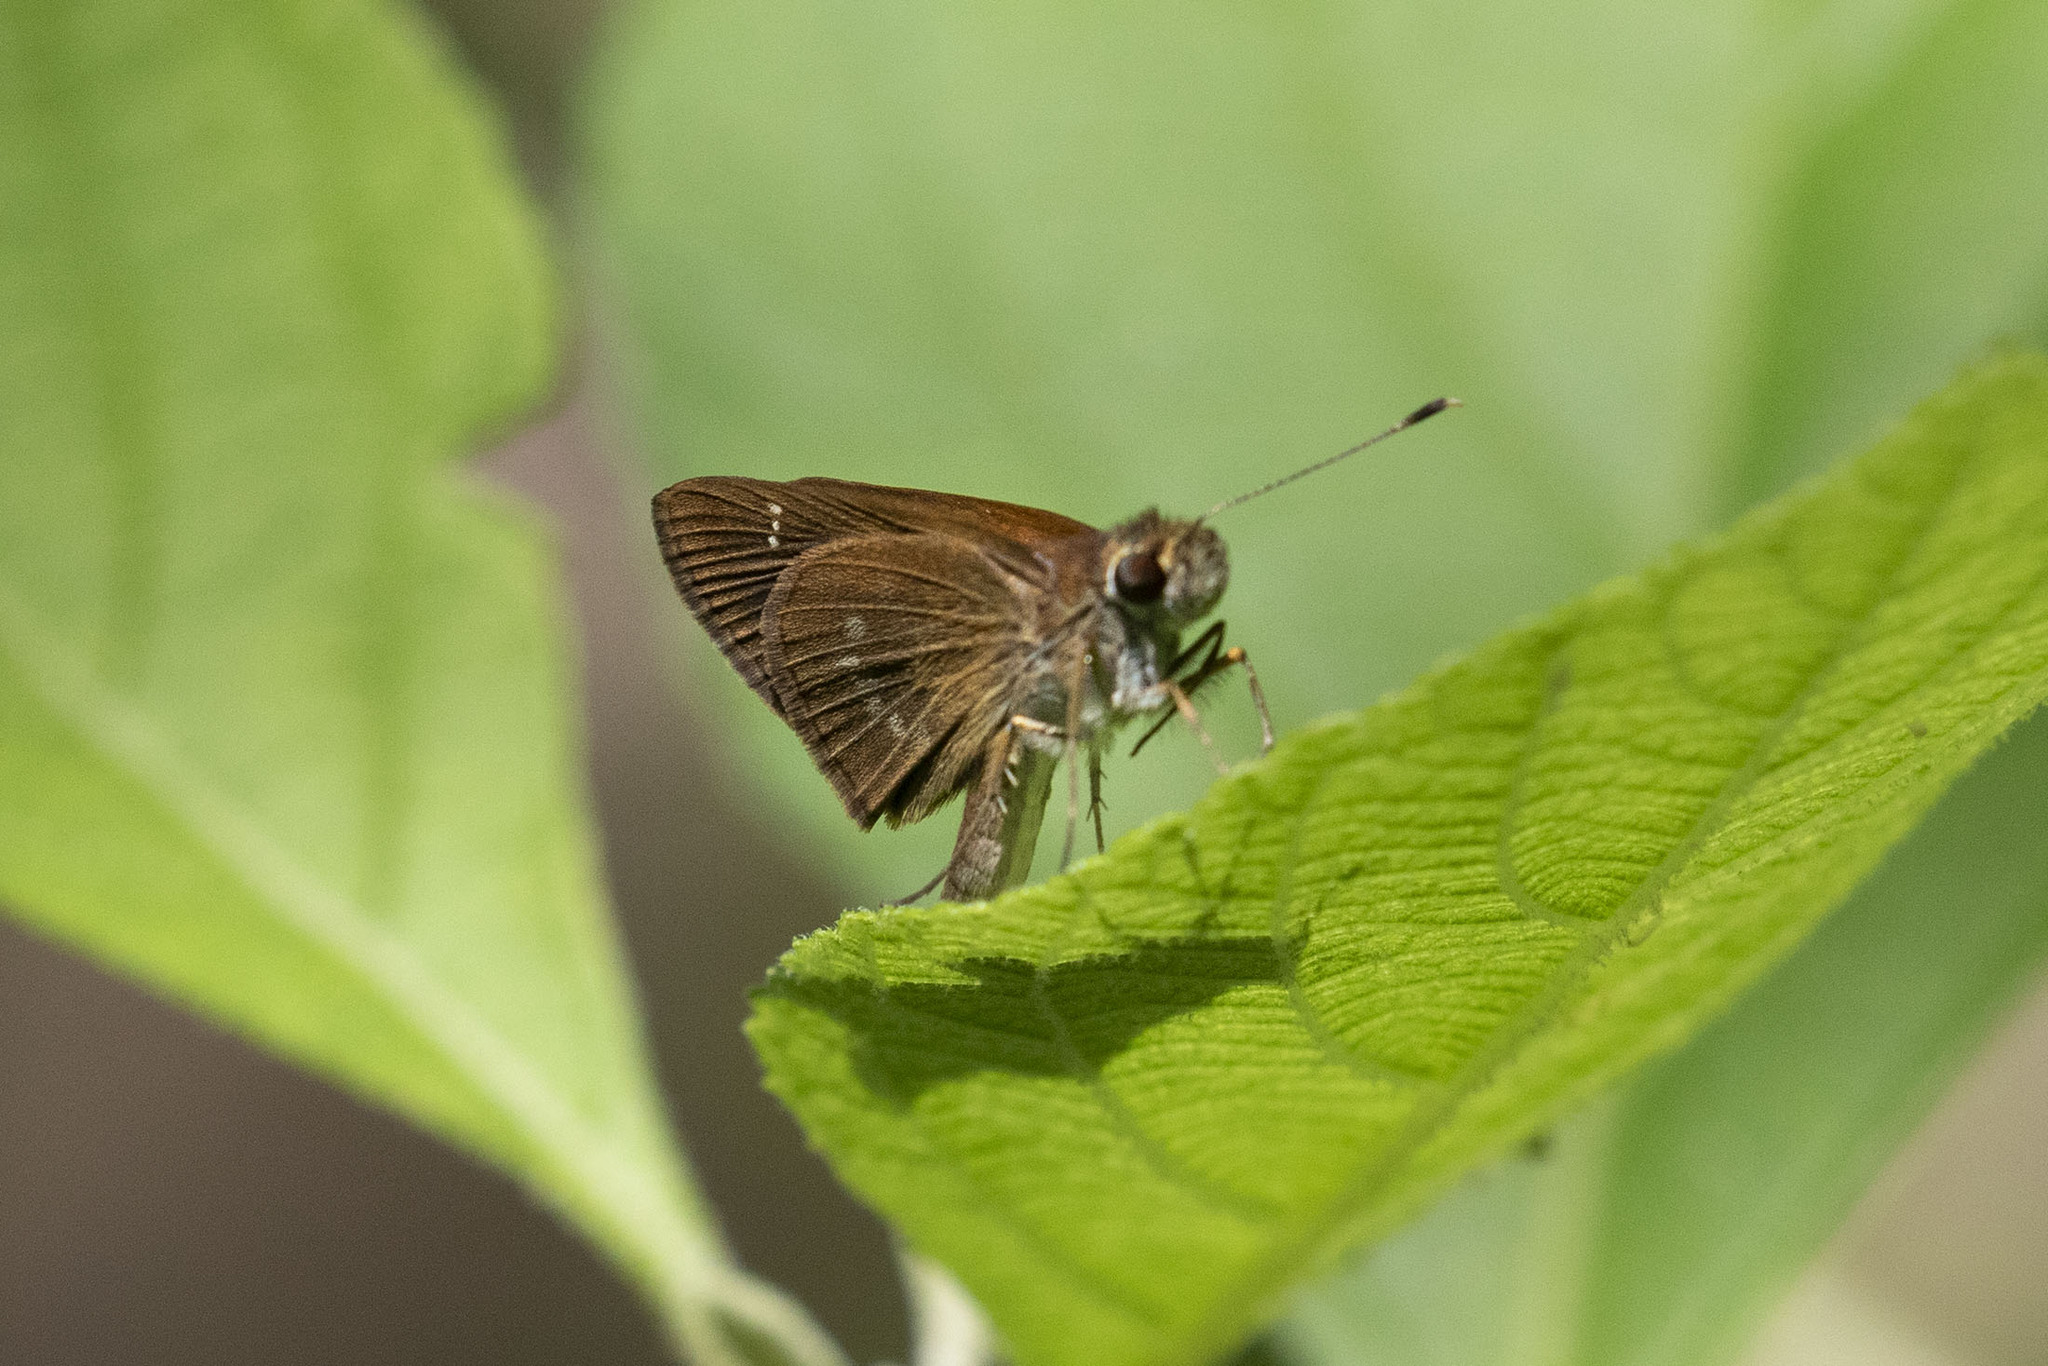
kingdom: Animalia
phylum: Arthropoda
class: Insecta
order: Lepidoptera
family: Hesperiidae
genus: Cymaenes
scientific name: Cymaenes tripunctus
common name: Dingy dotted skipper
